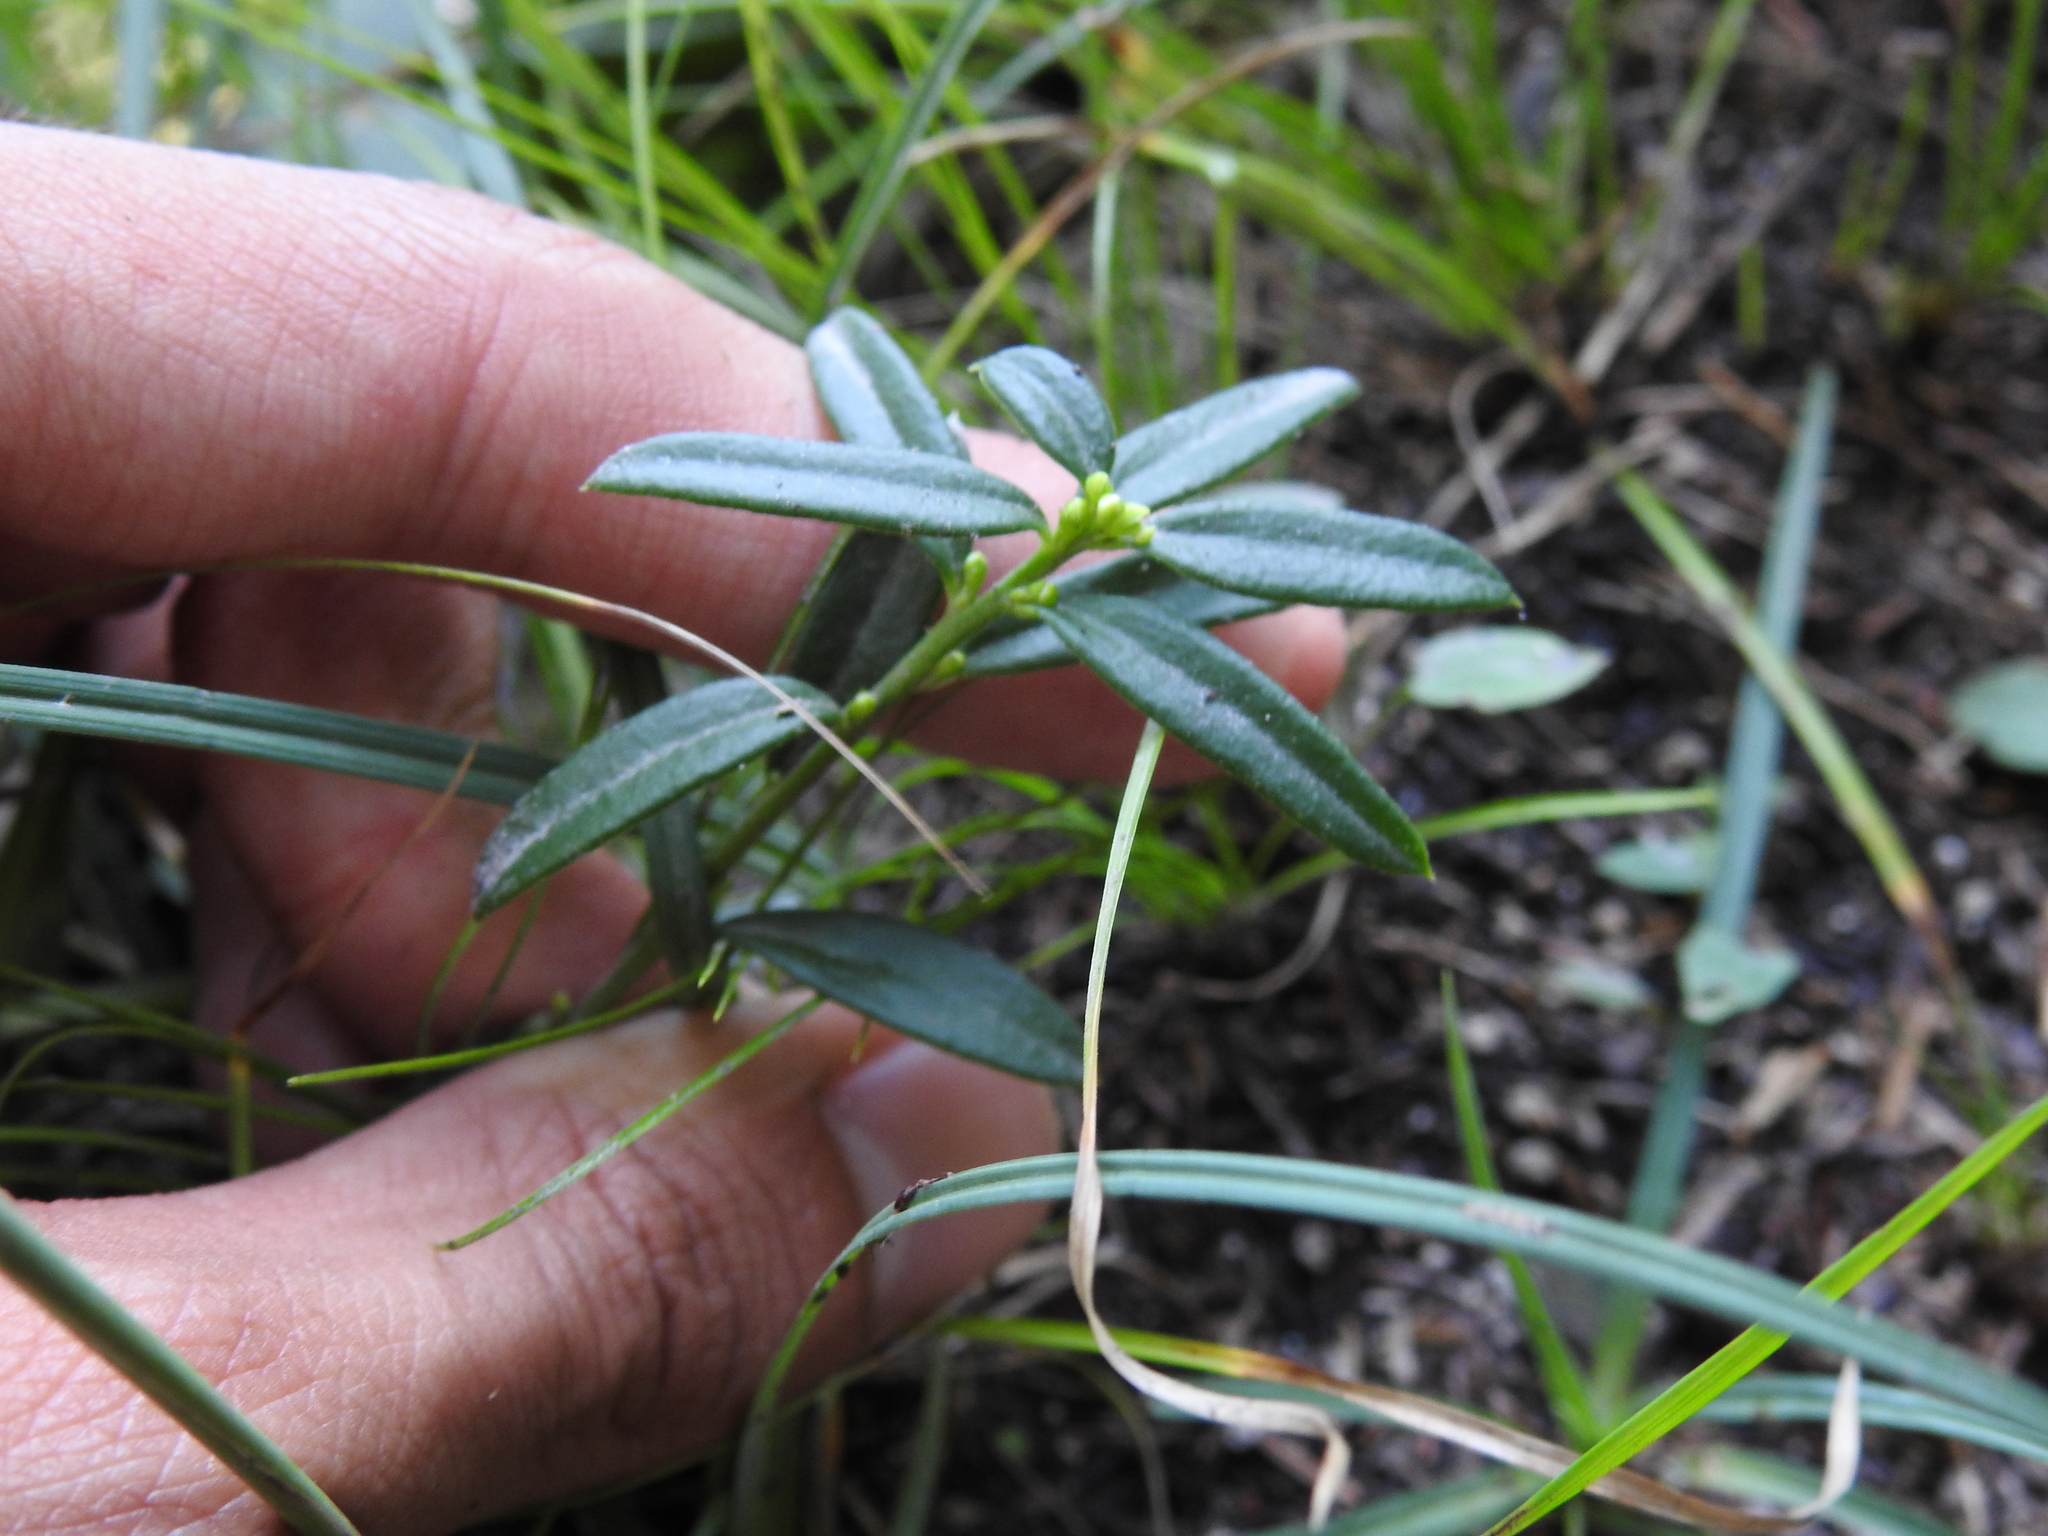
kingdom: Plantae
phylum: Tracheophyta
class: Magnoliopsida
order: Fabales
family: Polygalaceae
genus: Polygaloides
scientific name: Polygaloides chamaebuxus
